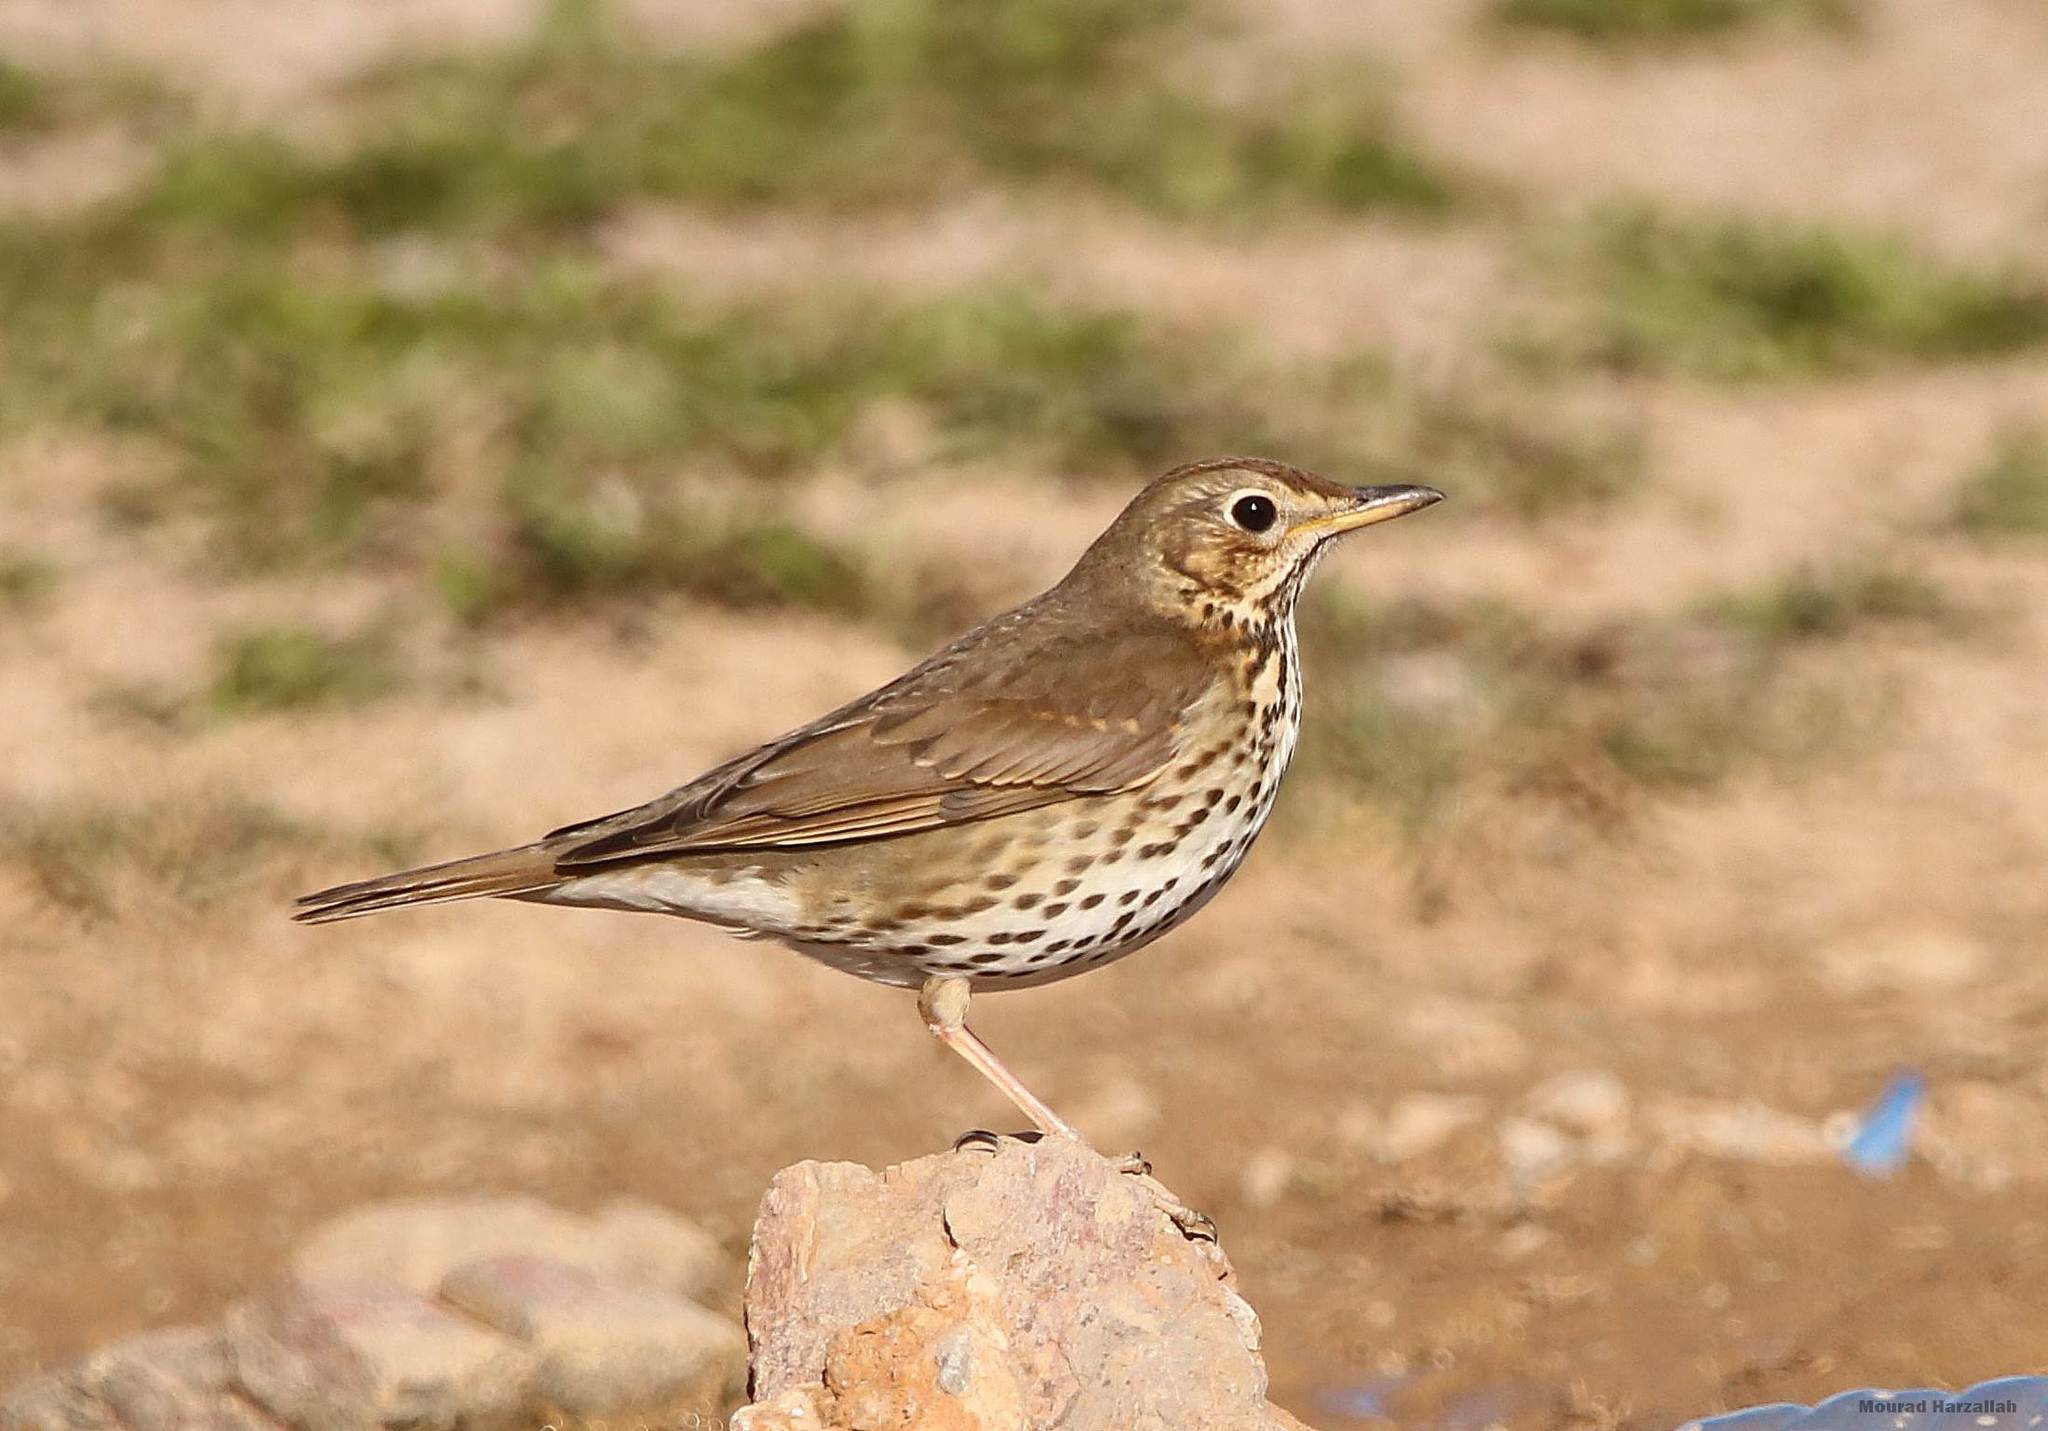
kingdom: Animalia
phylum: Chordata
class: Aves
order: Passeriformes
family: Turdidae
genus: Turdus
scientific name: Turdus philomelos
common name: Song thrush
